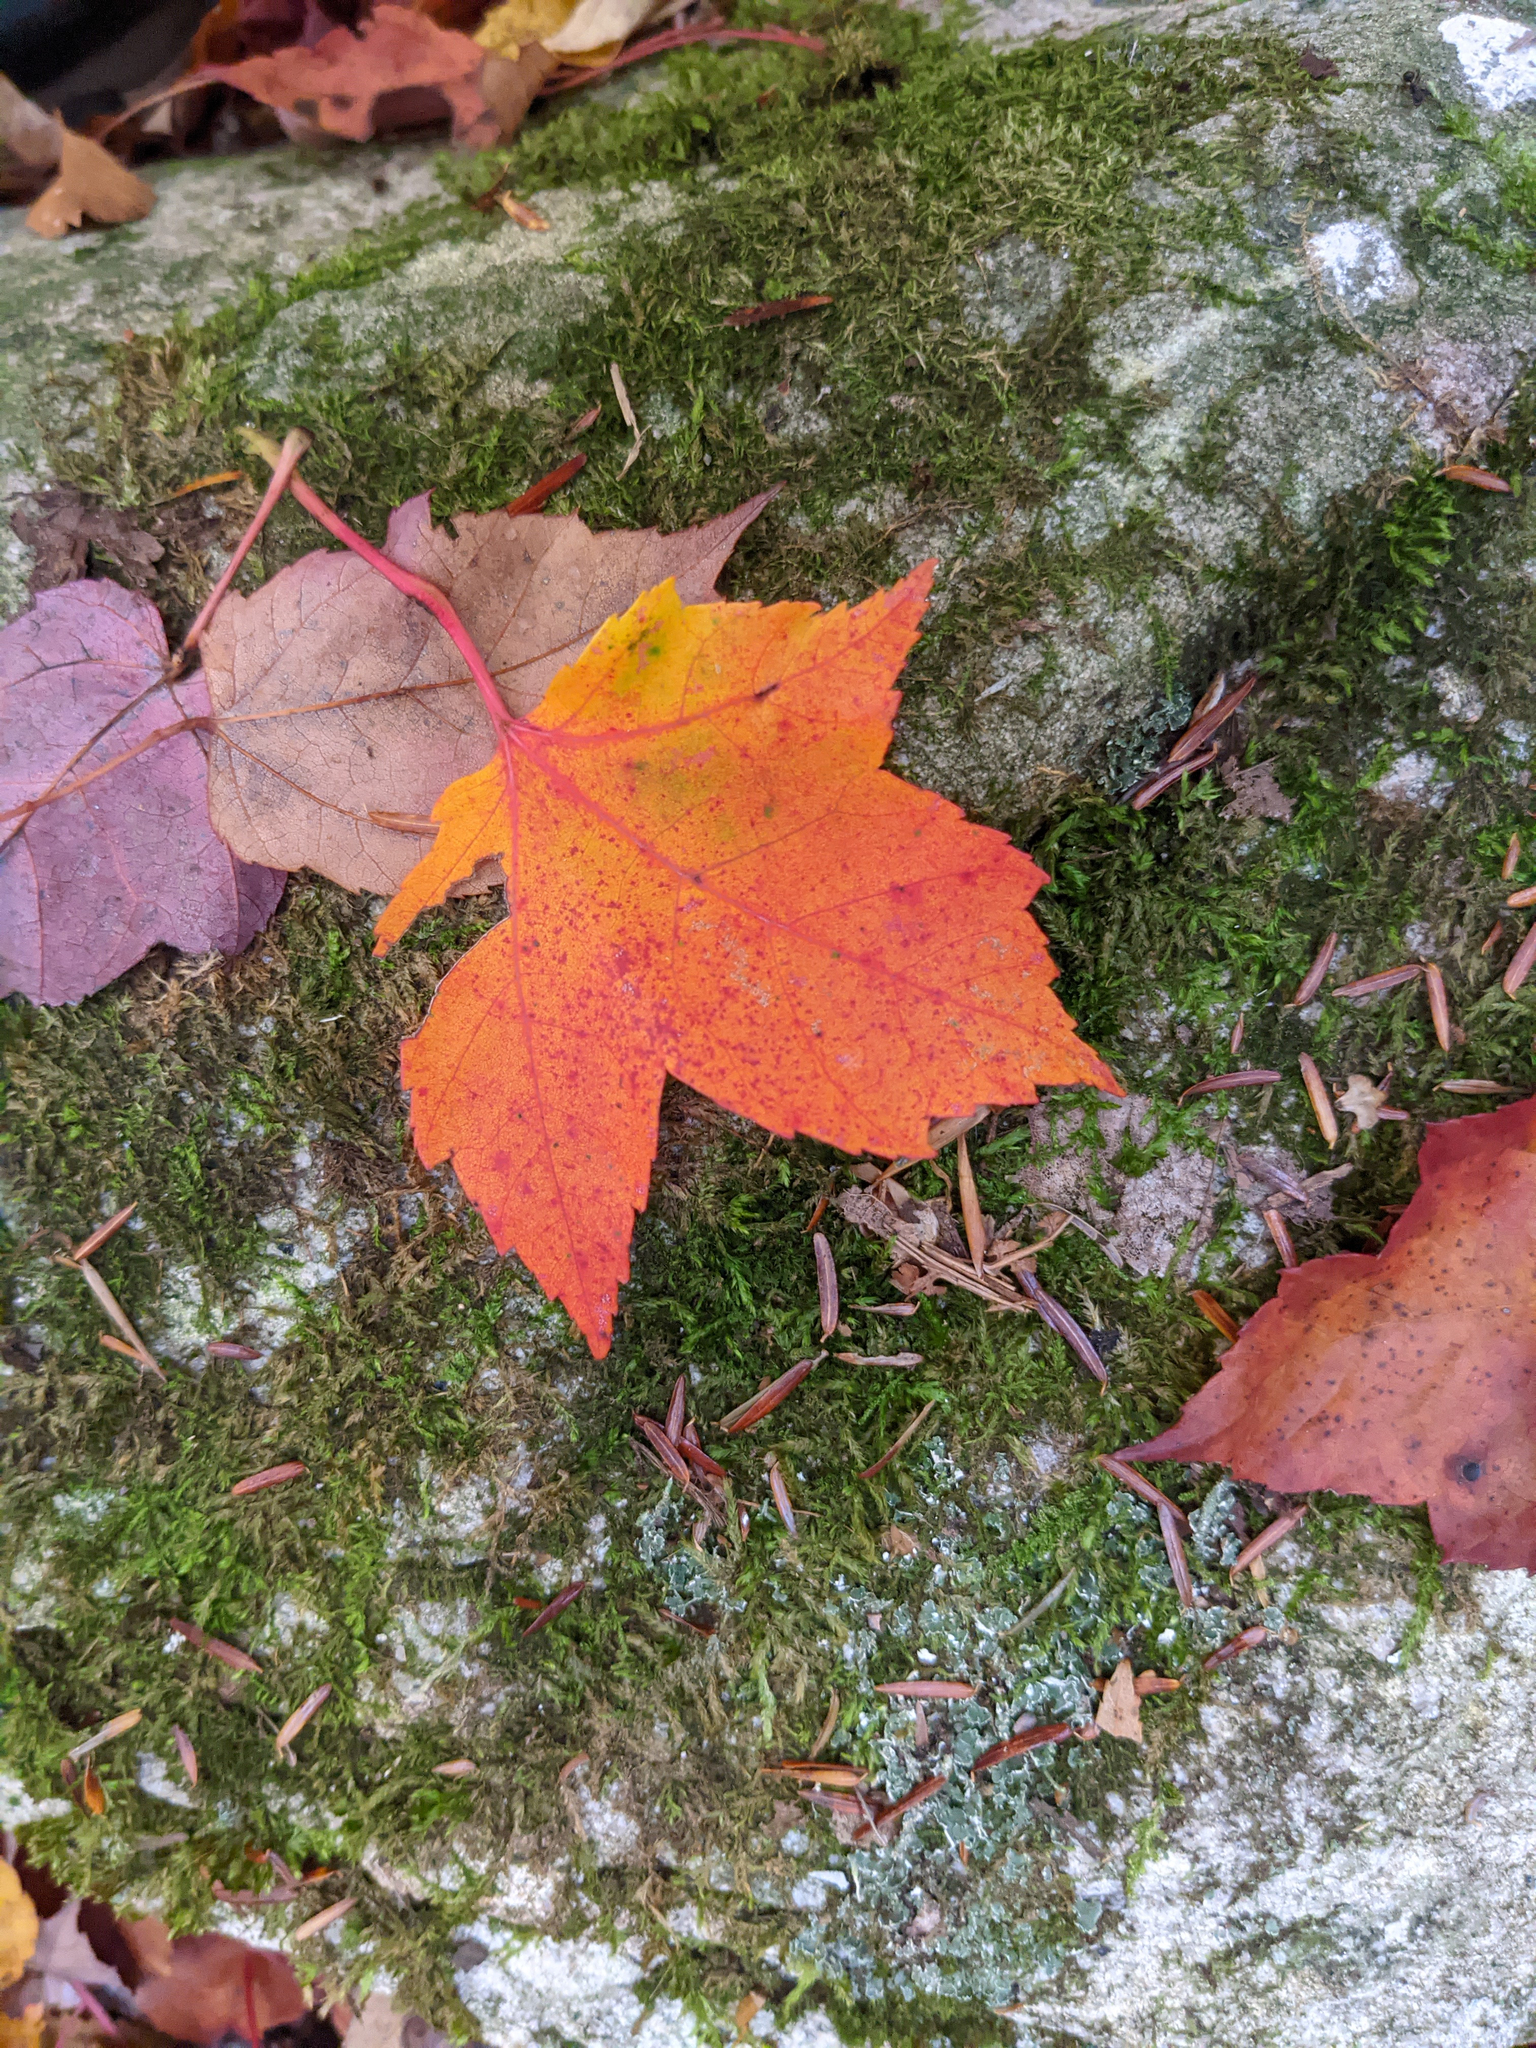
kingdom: Plantae
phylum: Tracheophyta
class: Magnoliopsida
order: Sapindales
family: Sapindaceae
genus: Acer
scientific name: Acer rubrum
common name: Red maple
